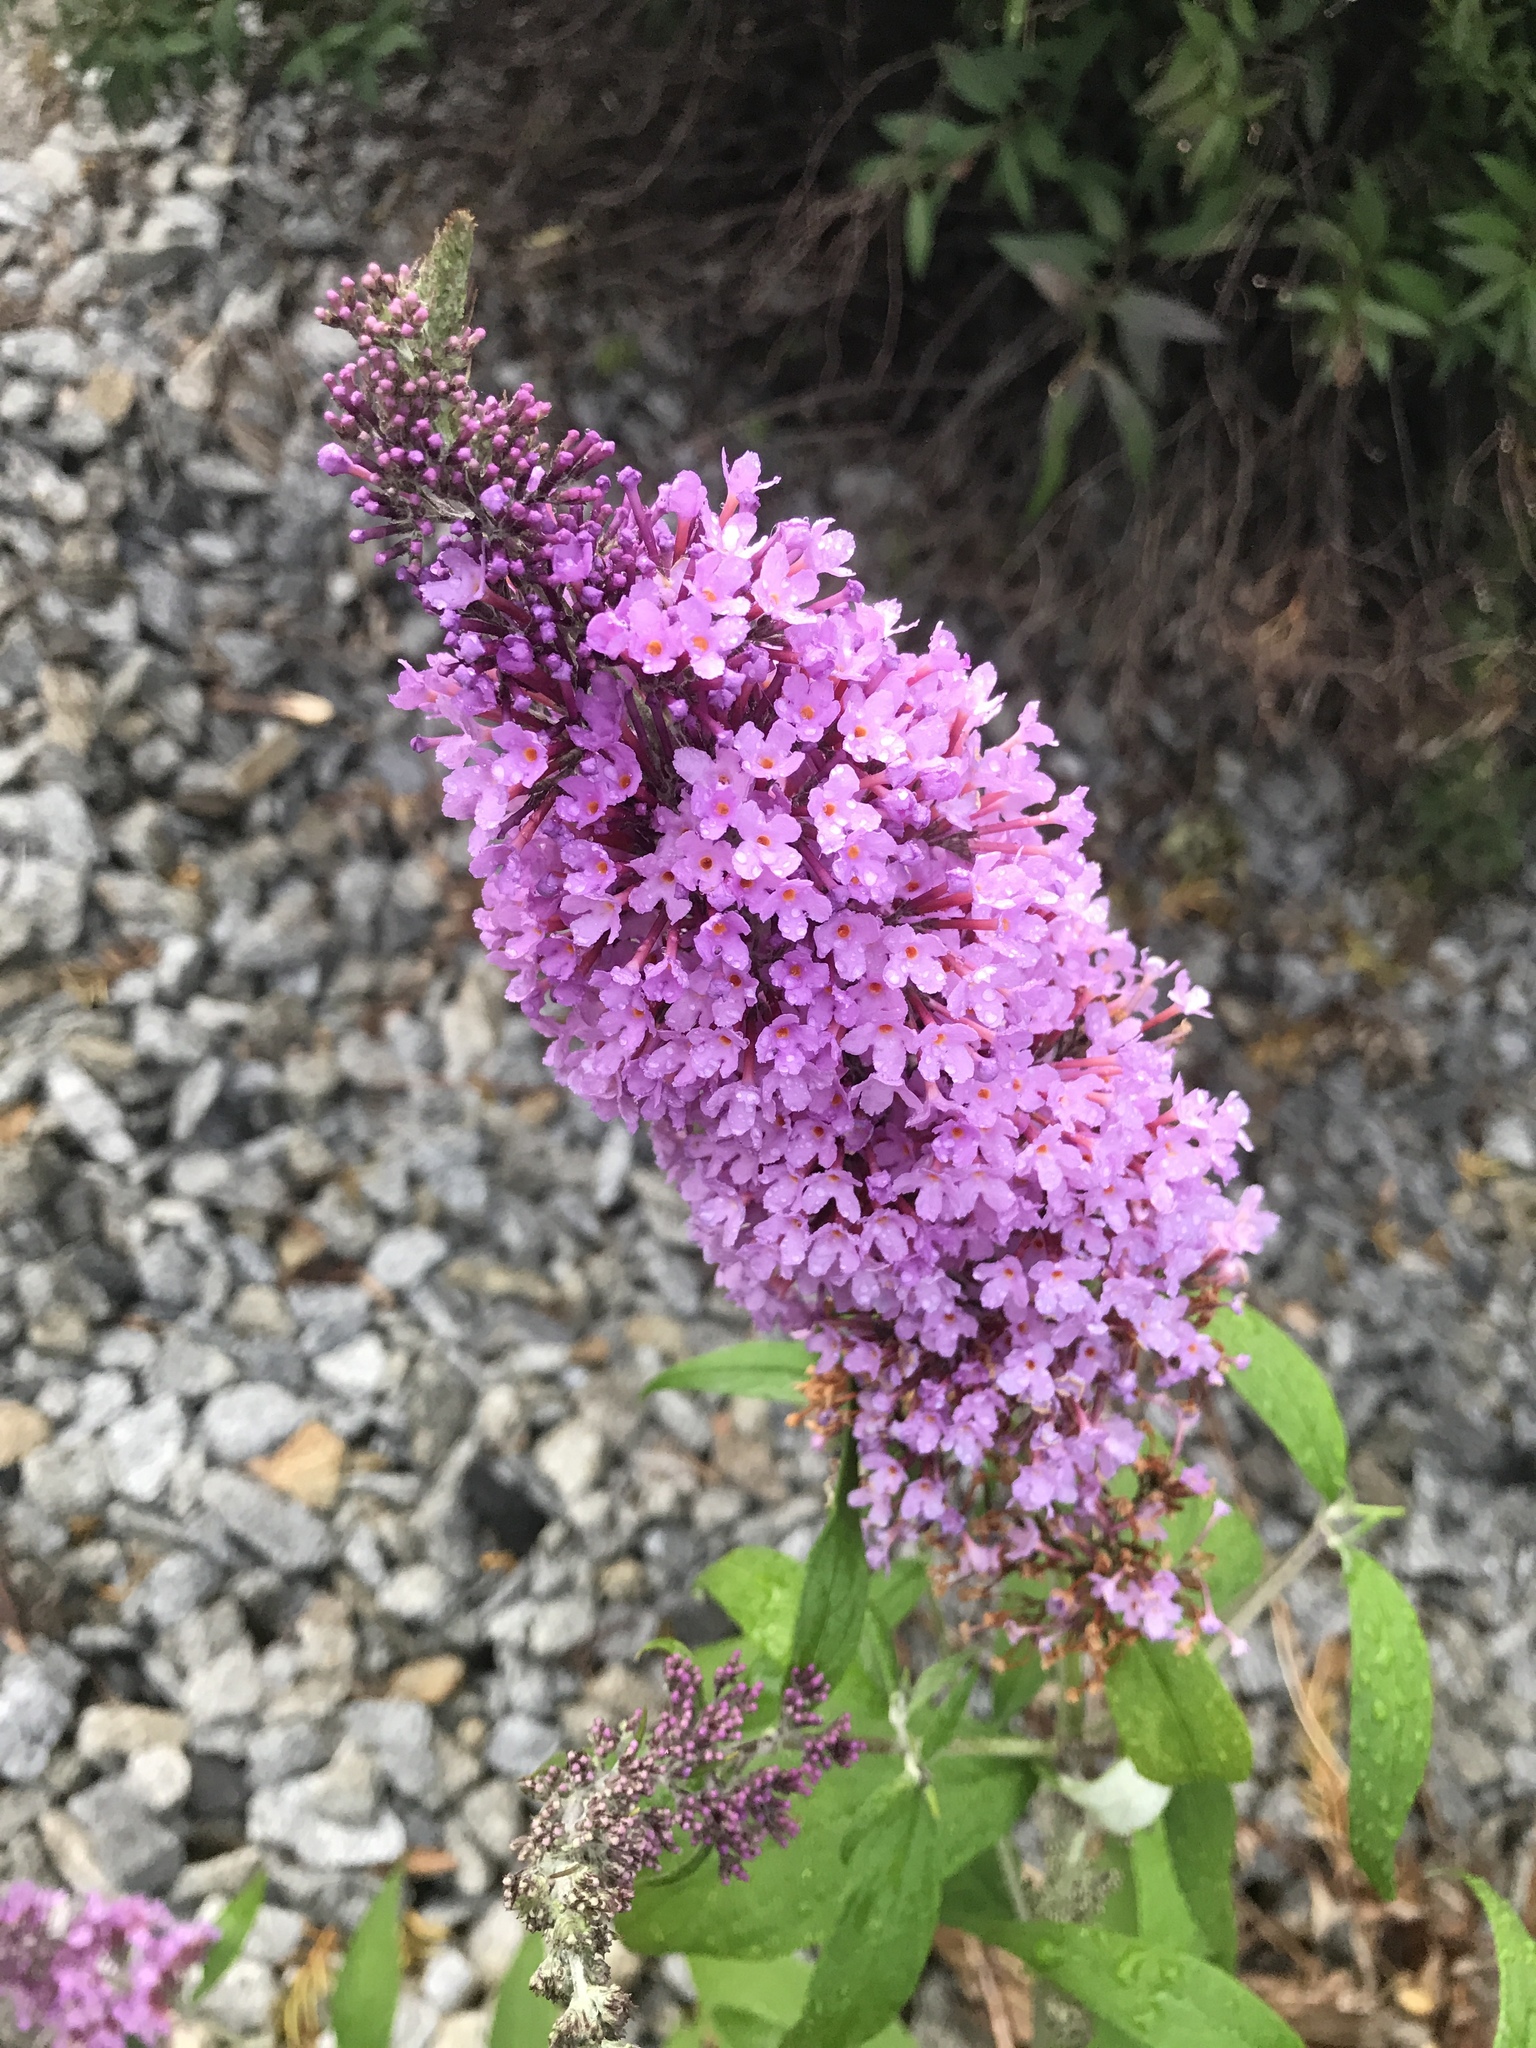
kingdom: Plantae
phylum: Tracheophyta
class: Magnoliopsida
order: Lamiales
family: Scrophulariaceae
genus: Buddleja
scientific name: Buddleja davidii
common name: Butterfly-bush
